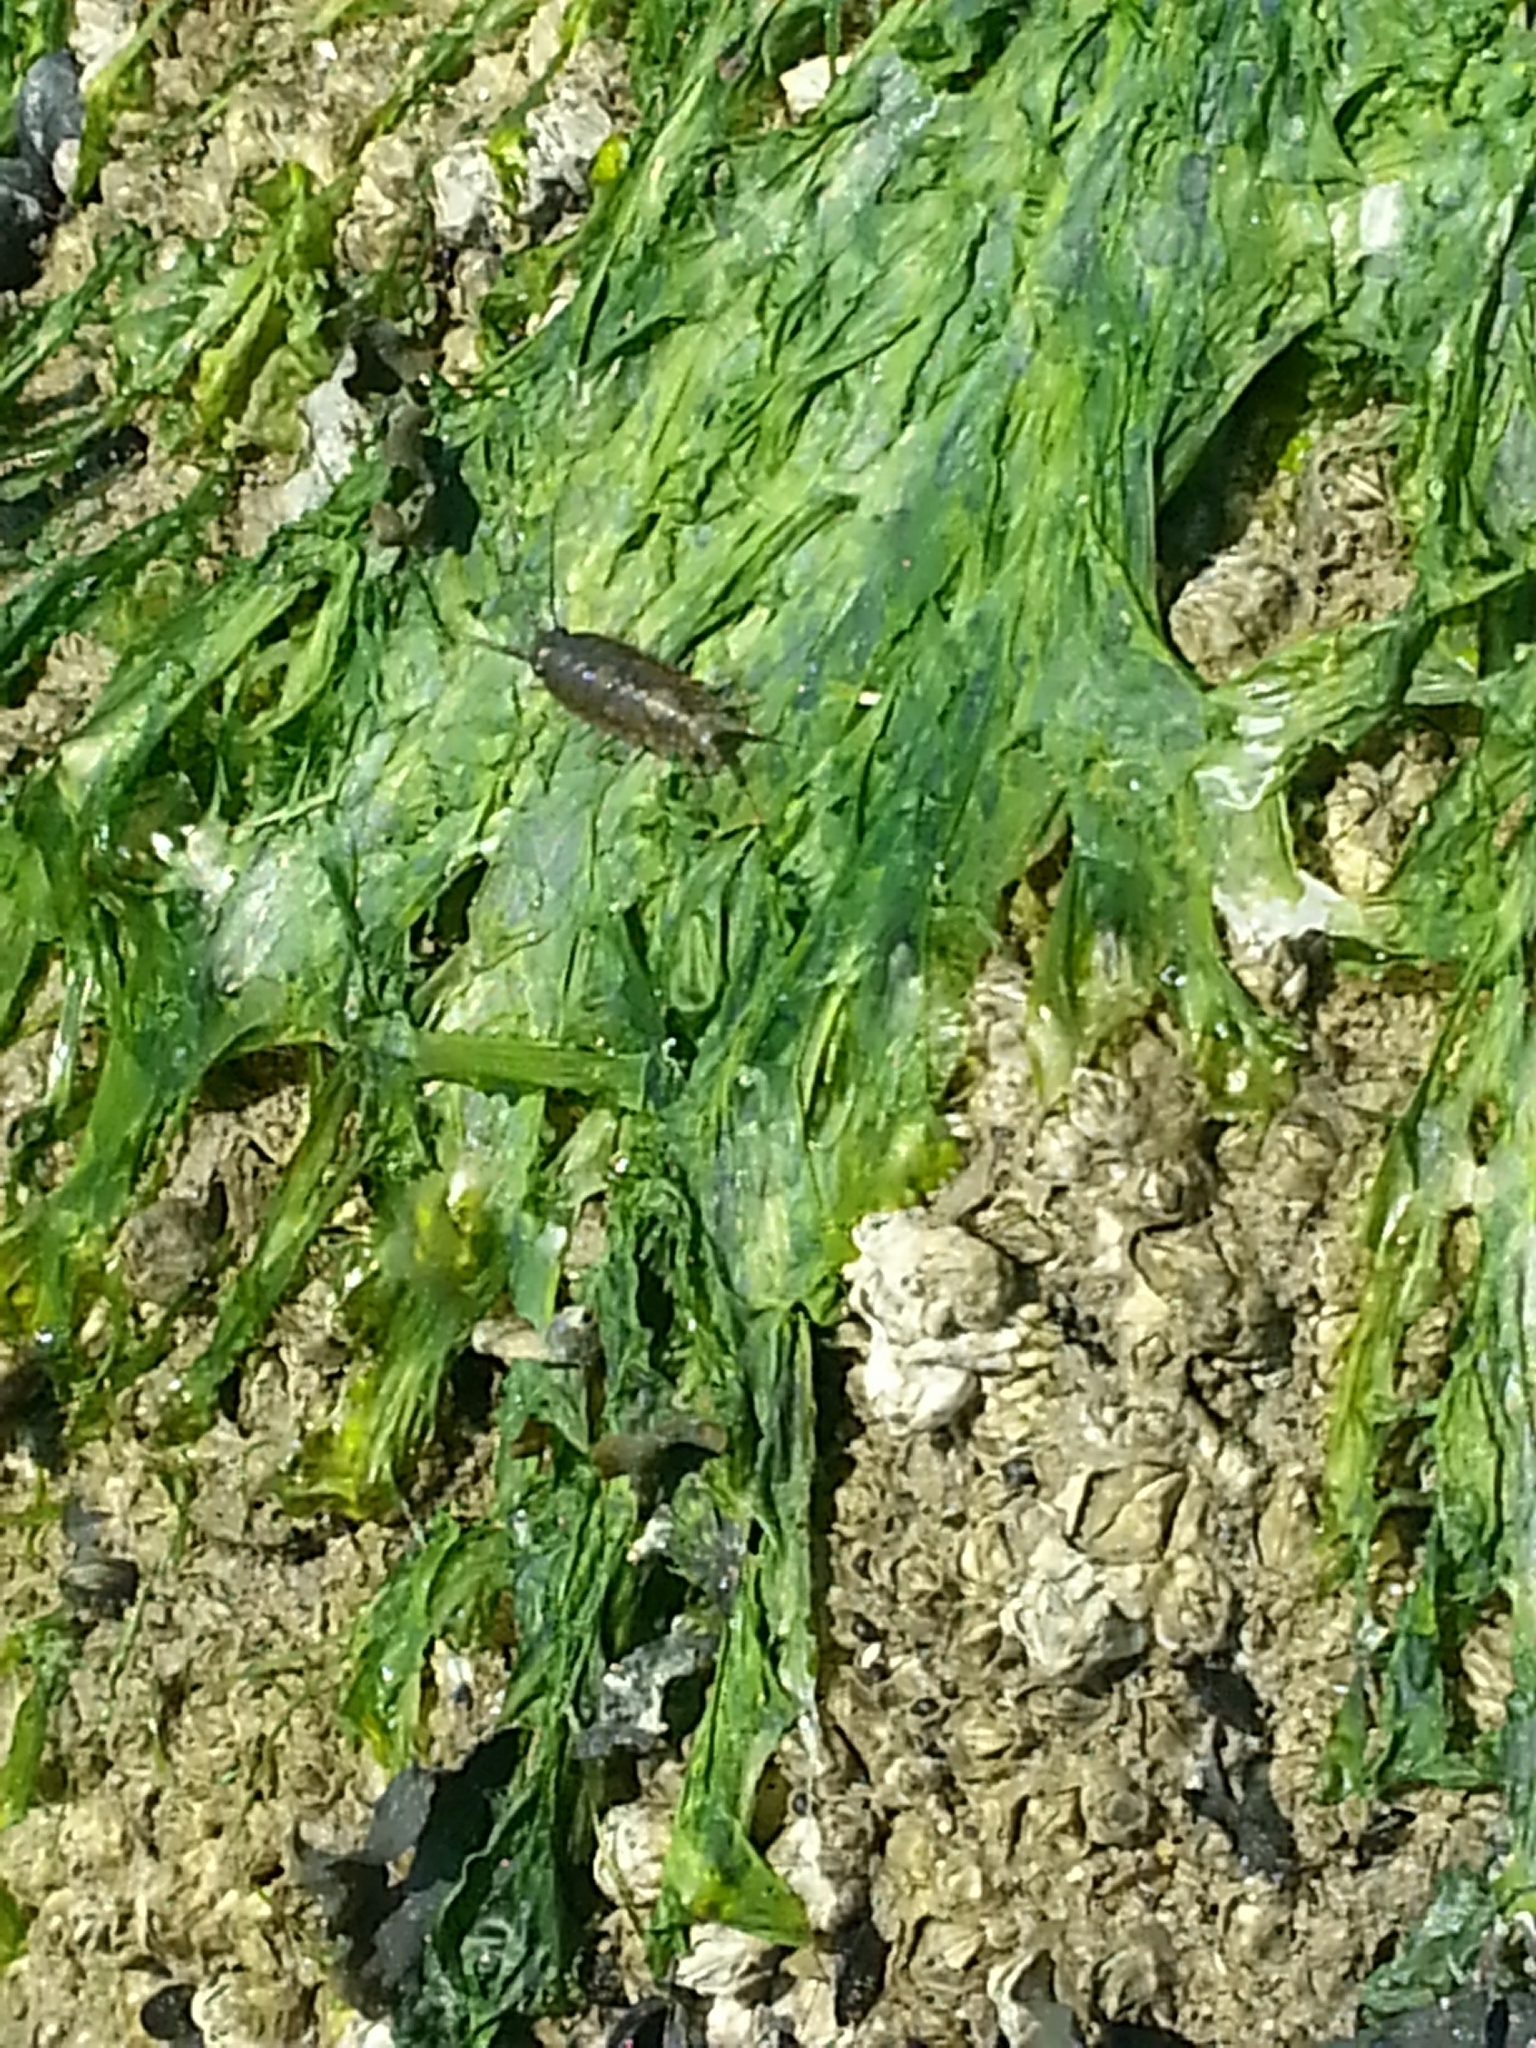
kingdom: Animalia
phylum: Arthropoda
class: Malacostraca
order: Isopoda
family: Ligiidae
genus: Ligia
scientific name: Ligia occidentalis
